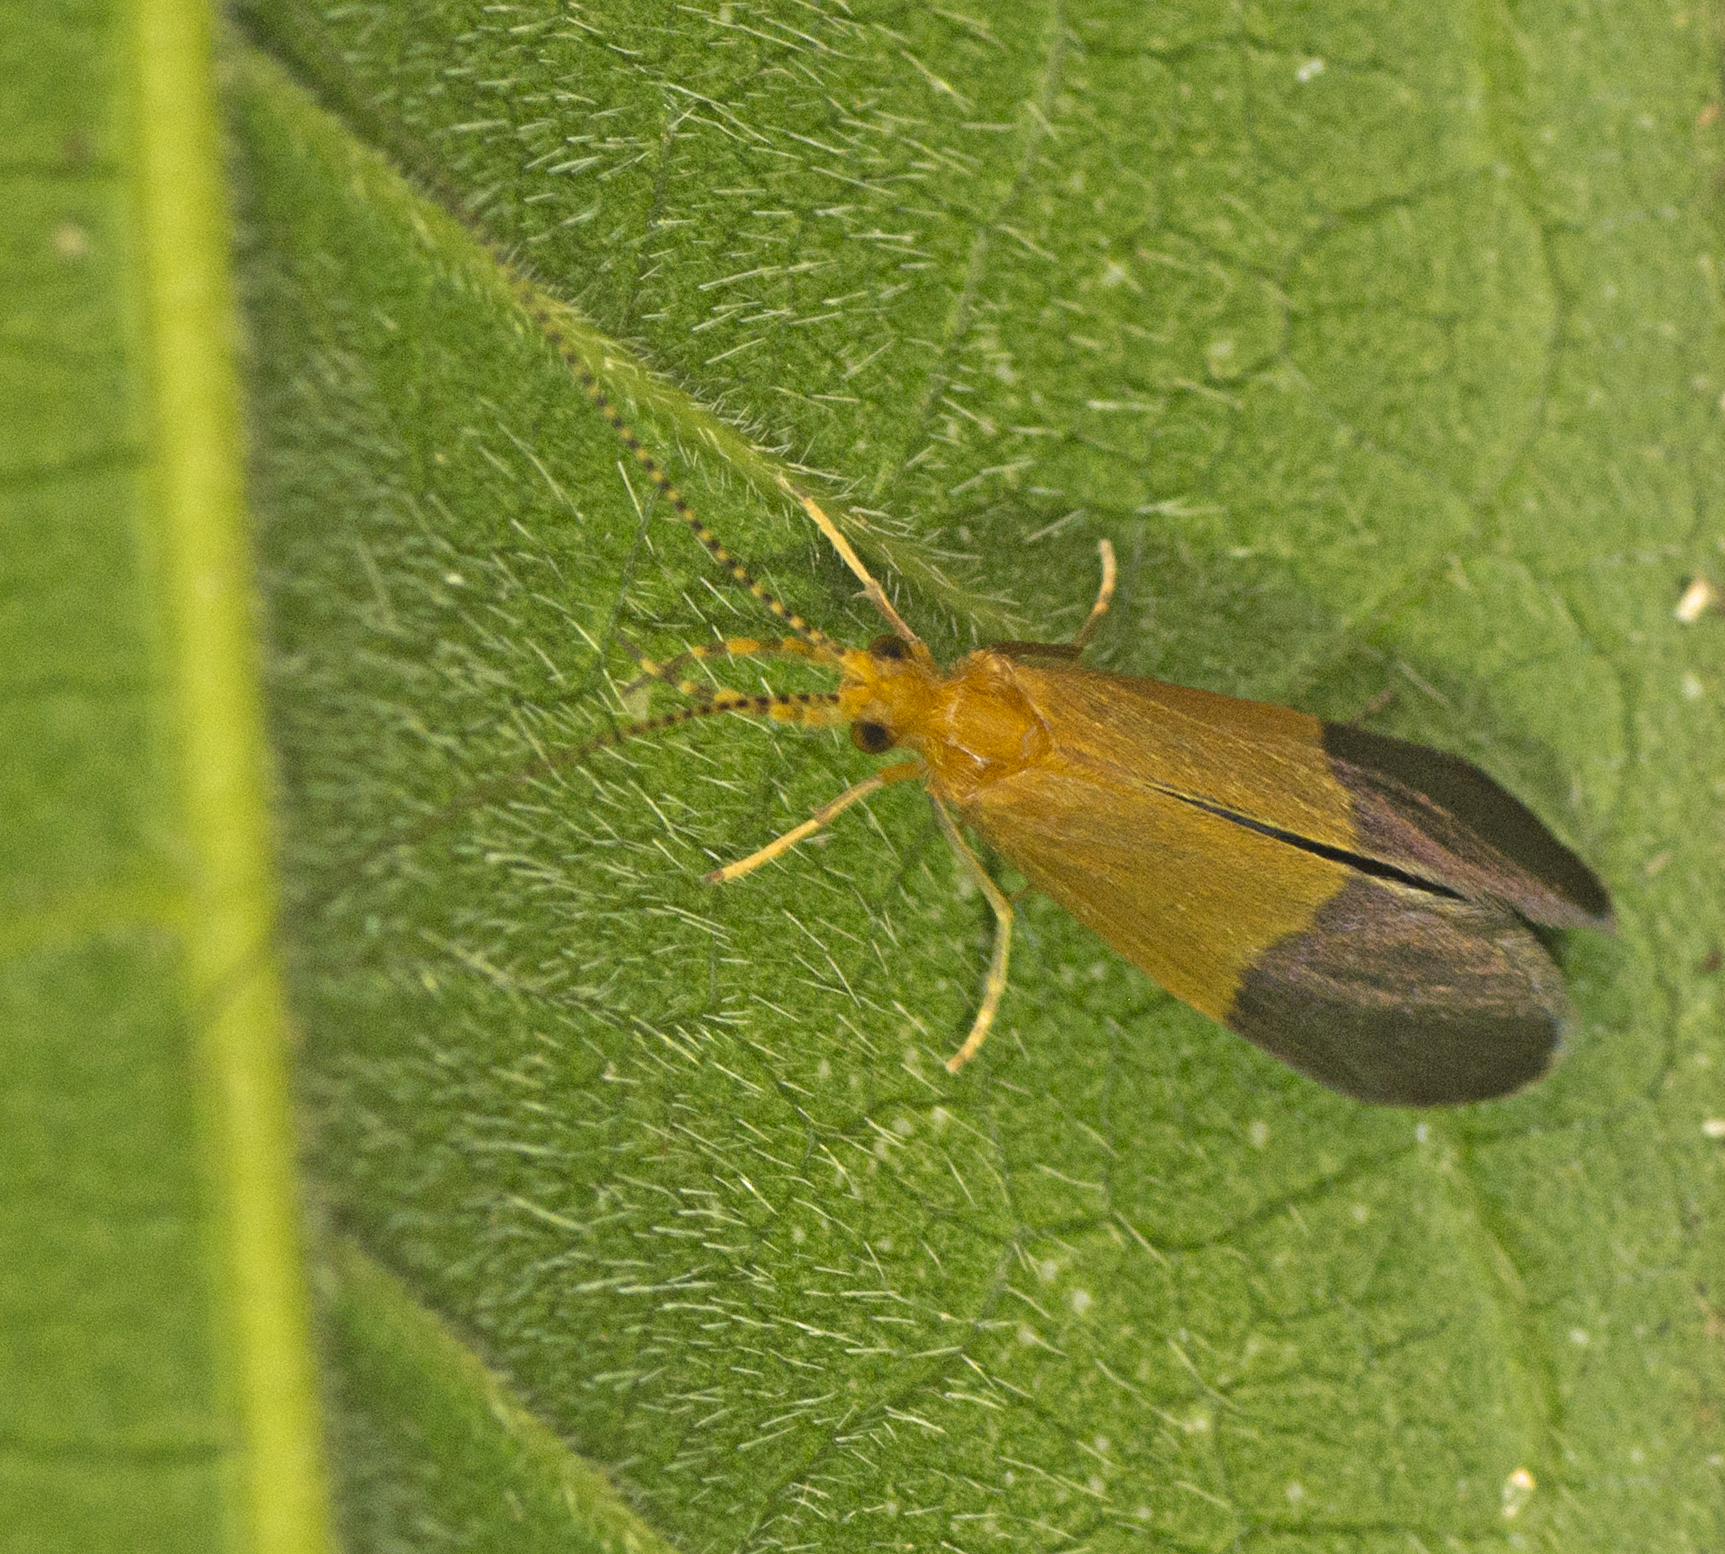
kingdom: Animalia
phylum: Arthropoda
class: Insecta
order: Trichoptera
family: Calamoceratidae
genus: Anisocentropus
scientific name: Anisocentropus bicoloratus
